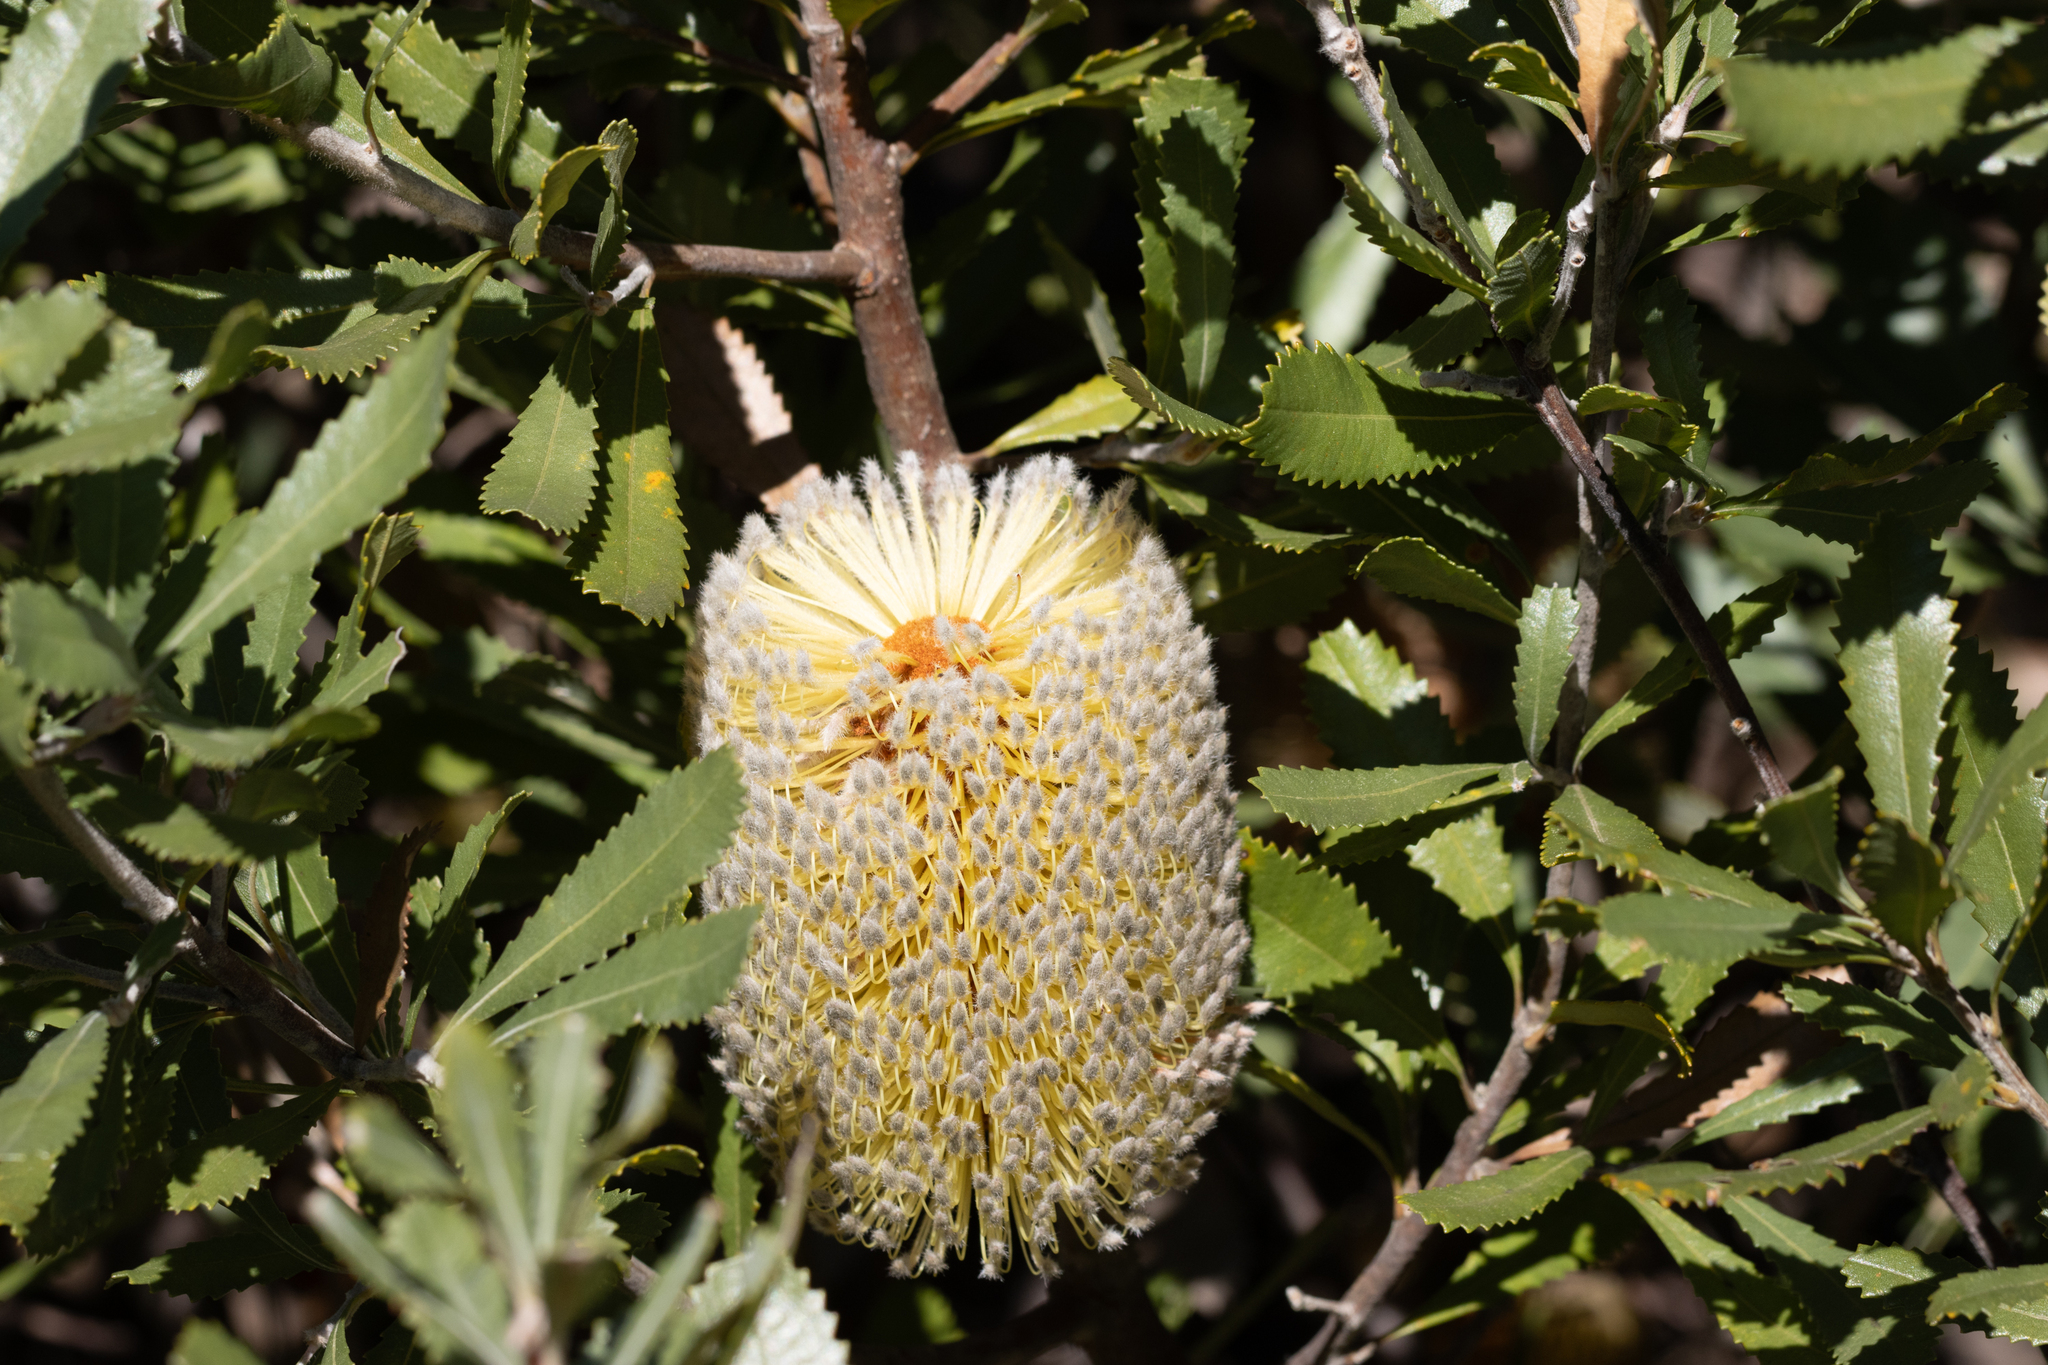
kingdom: Plantae
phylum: Tracheophyta
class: Magnoliopsida
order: Proteales
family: Proteaceae
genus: Banksia
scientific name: Banksia ornata
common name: Desert banksia
